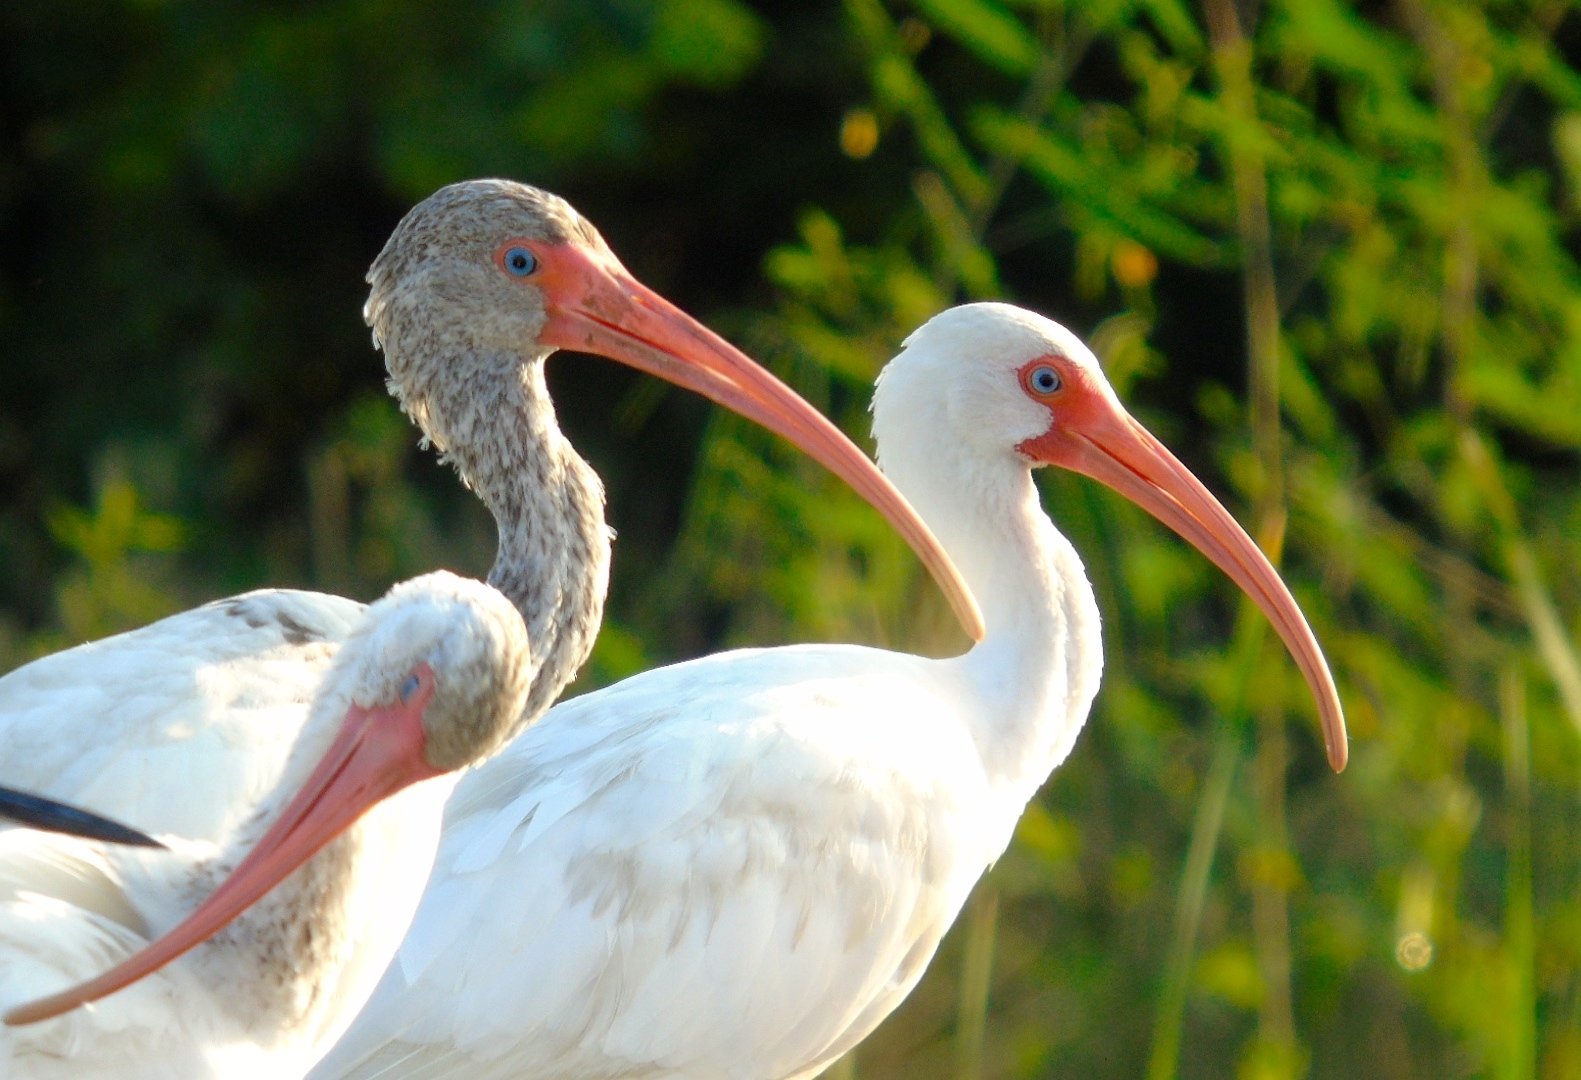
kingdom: Animalia
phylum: Chordata
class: Aves
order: Pelecaniformes
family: Threskiornithidae
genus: Eudocimus
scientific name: Eudocimus albus
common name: White ibis
